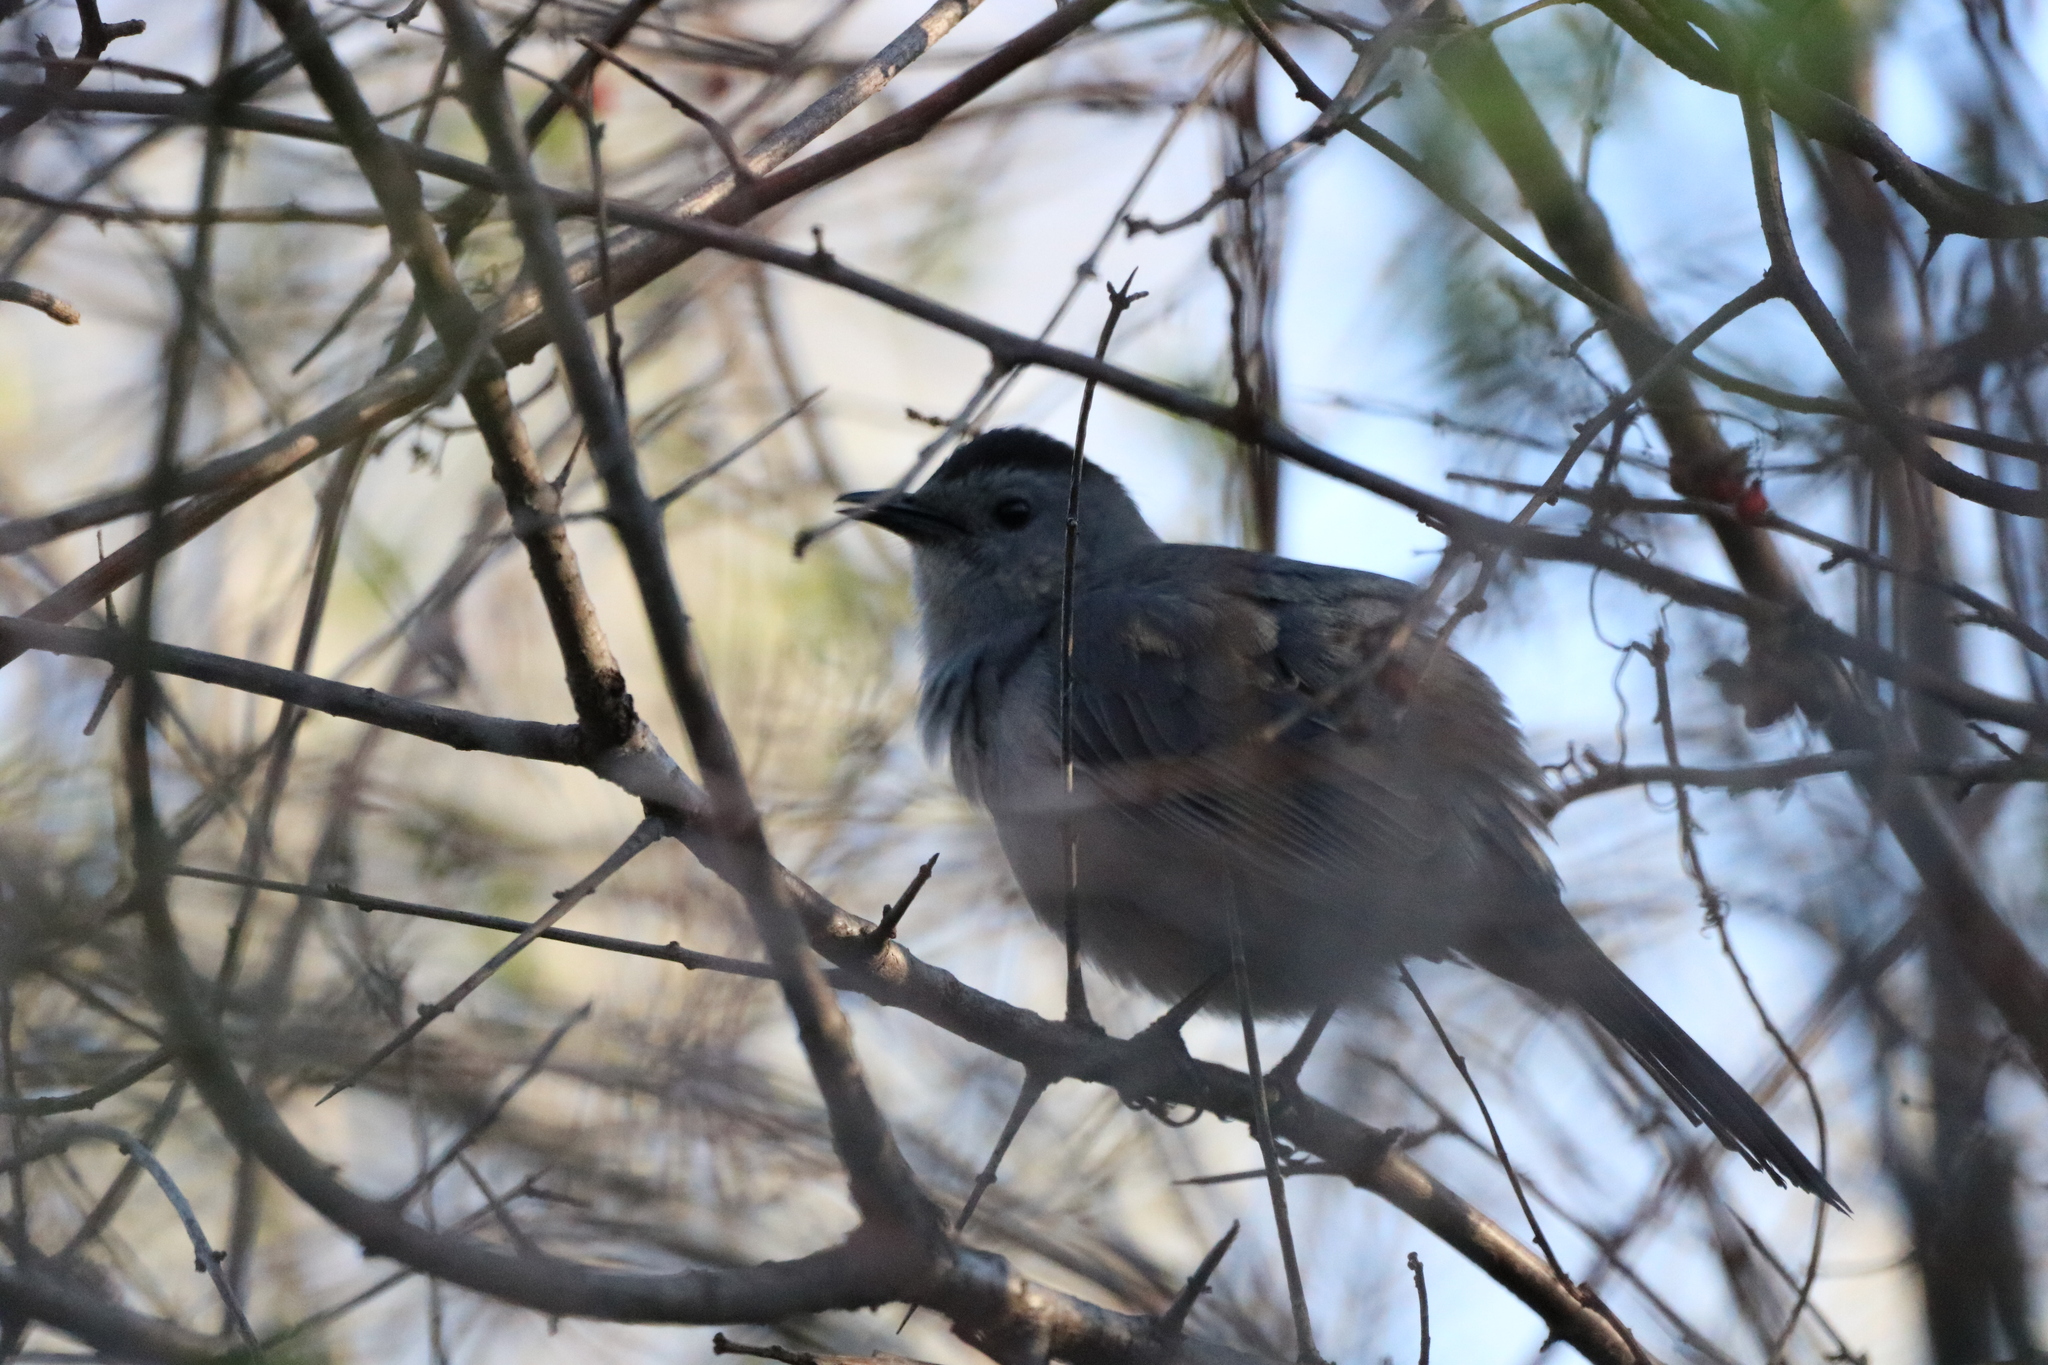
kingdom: Animalia
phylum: Chordata
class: Aves
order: Passeriformes
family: Mimidae
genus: Dumetella
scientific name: Dumetella carolinensis
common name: Gray catbird
